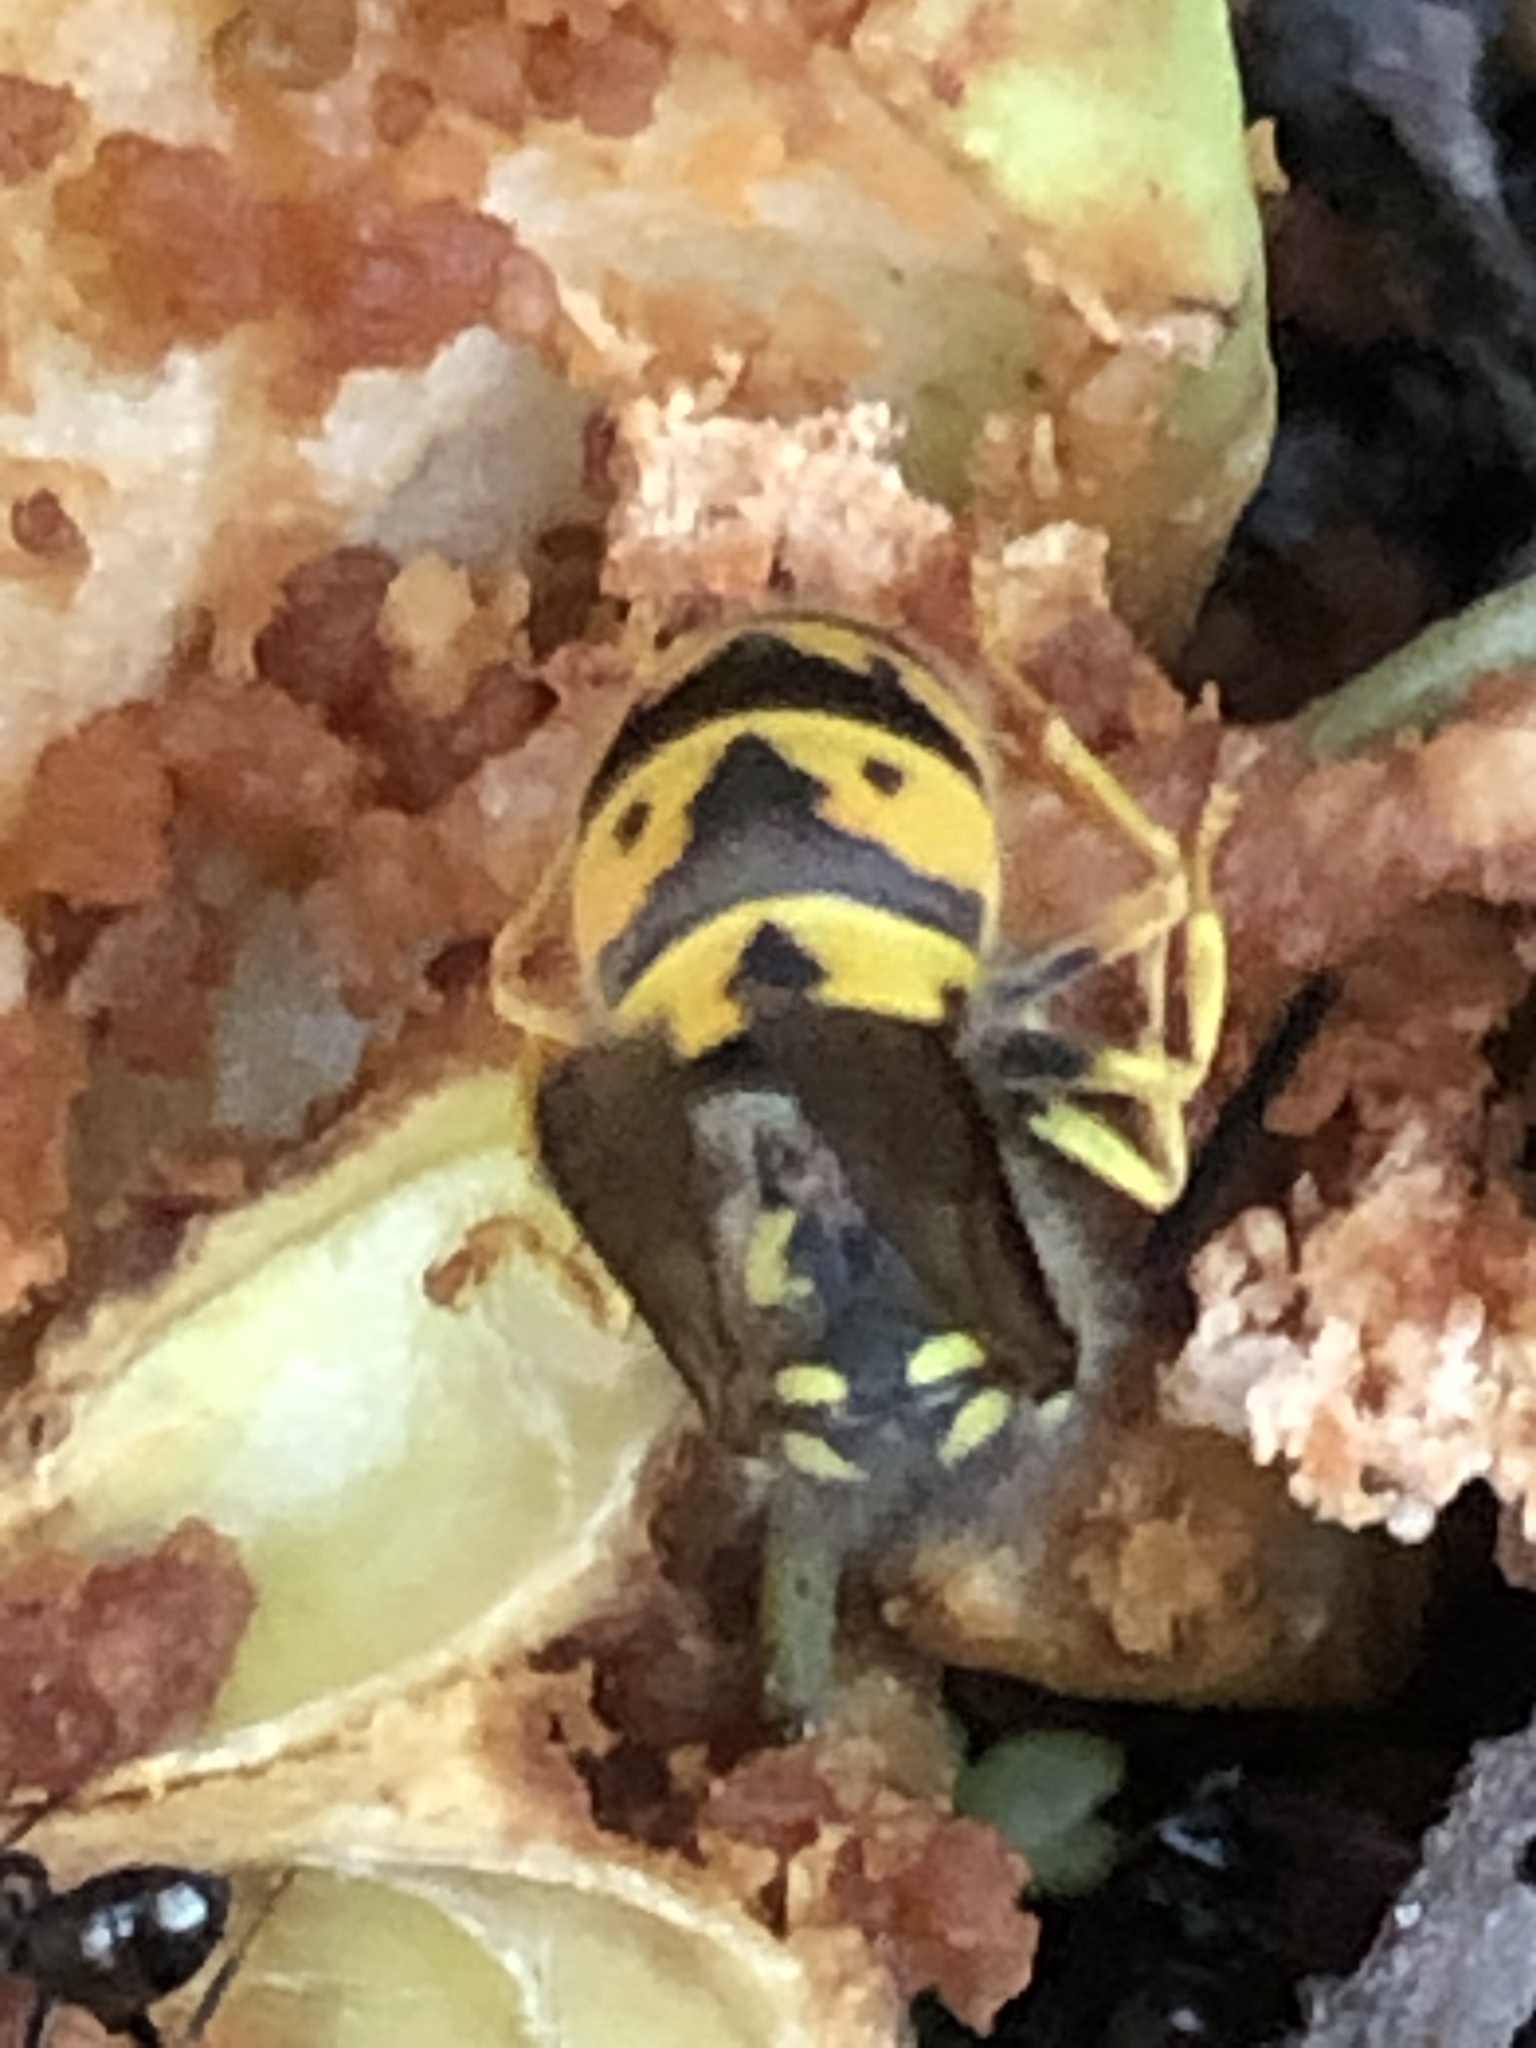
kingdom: Animalia
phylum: Arthropoda
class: Insecta
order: Hymenoptera
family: Vespidae
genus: Vespula
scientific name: Vespula germanica
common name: German wasp
